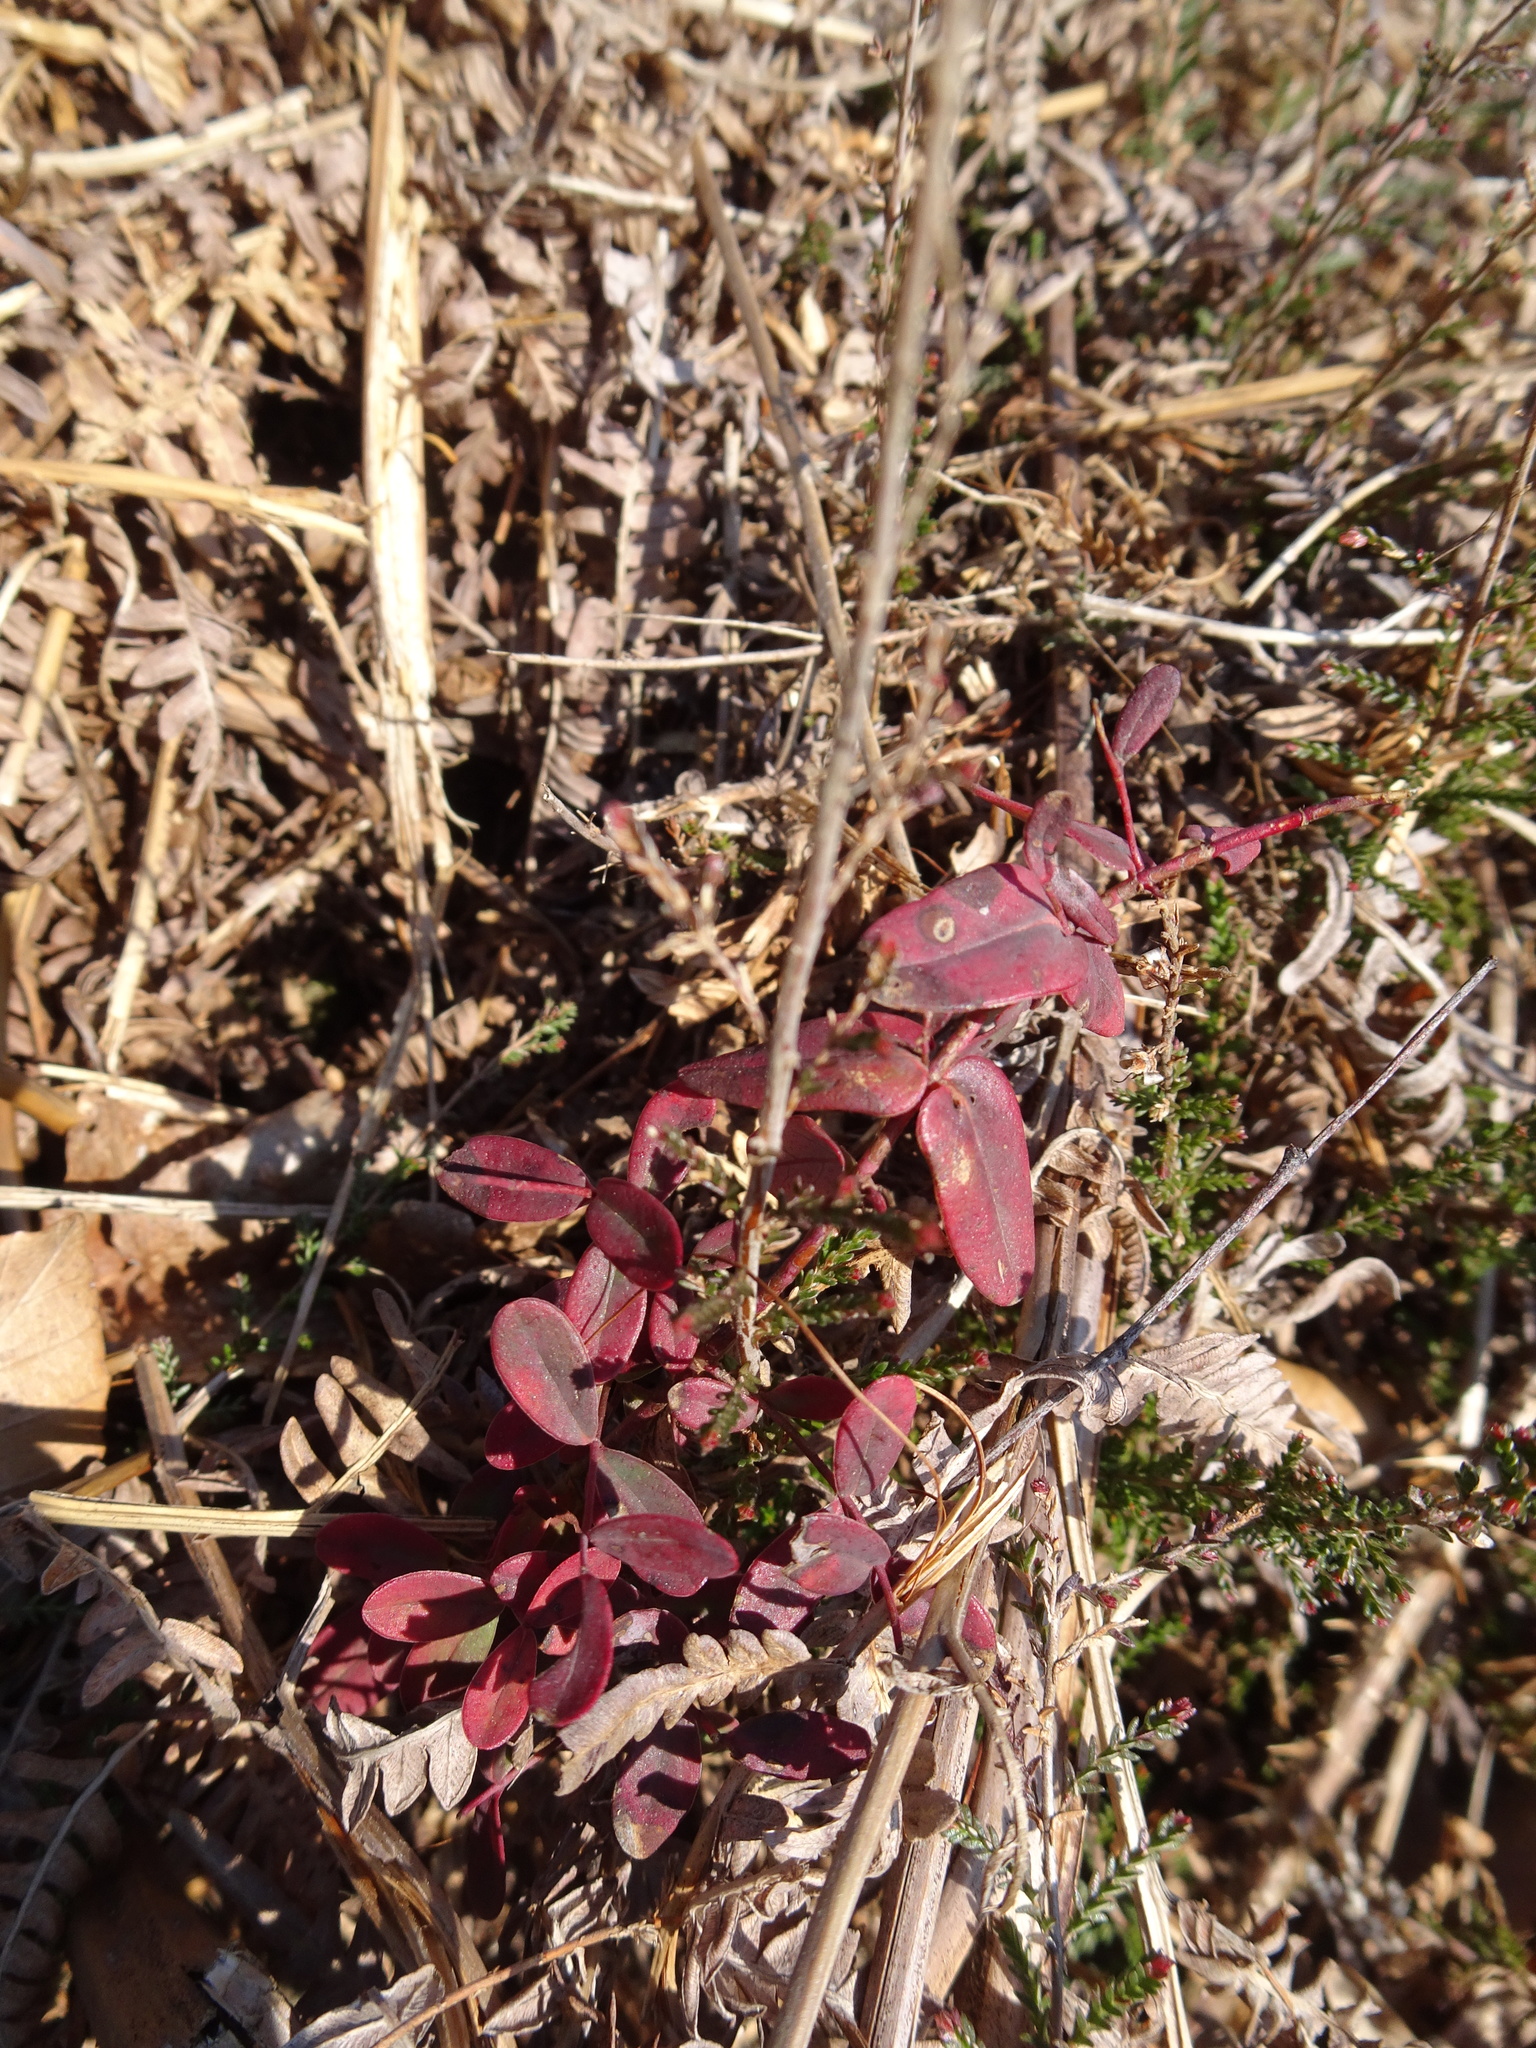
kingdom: Plantae
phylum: Tracheophyta
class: Magnoliopsida
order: Malpighiales
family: Hypericaceae
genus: Hypericum
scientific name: Hypericum pulchrum
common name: Slender st. john's-wort
